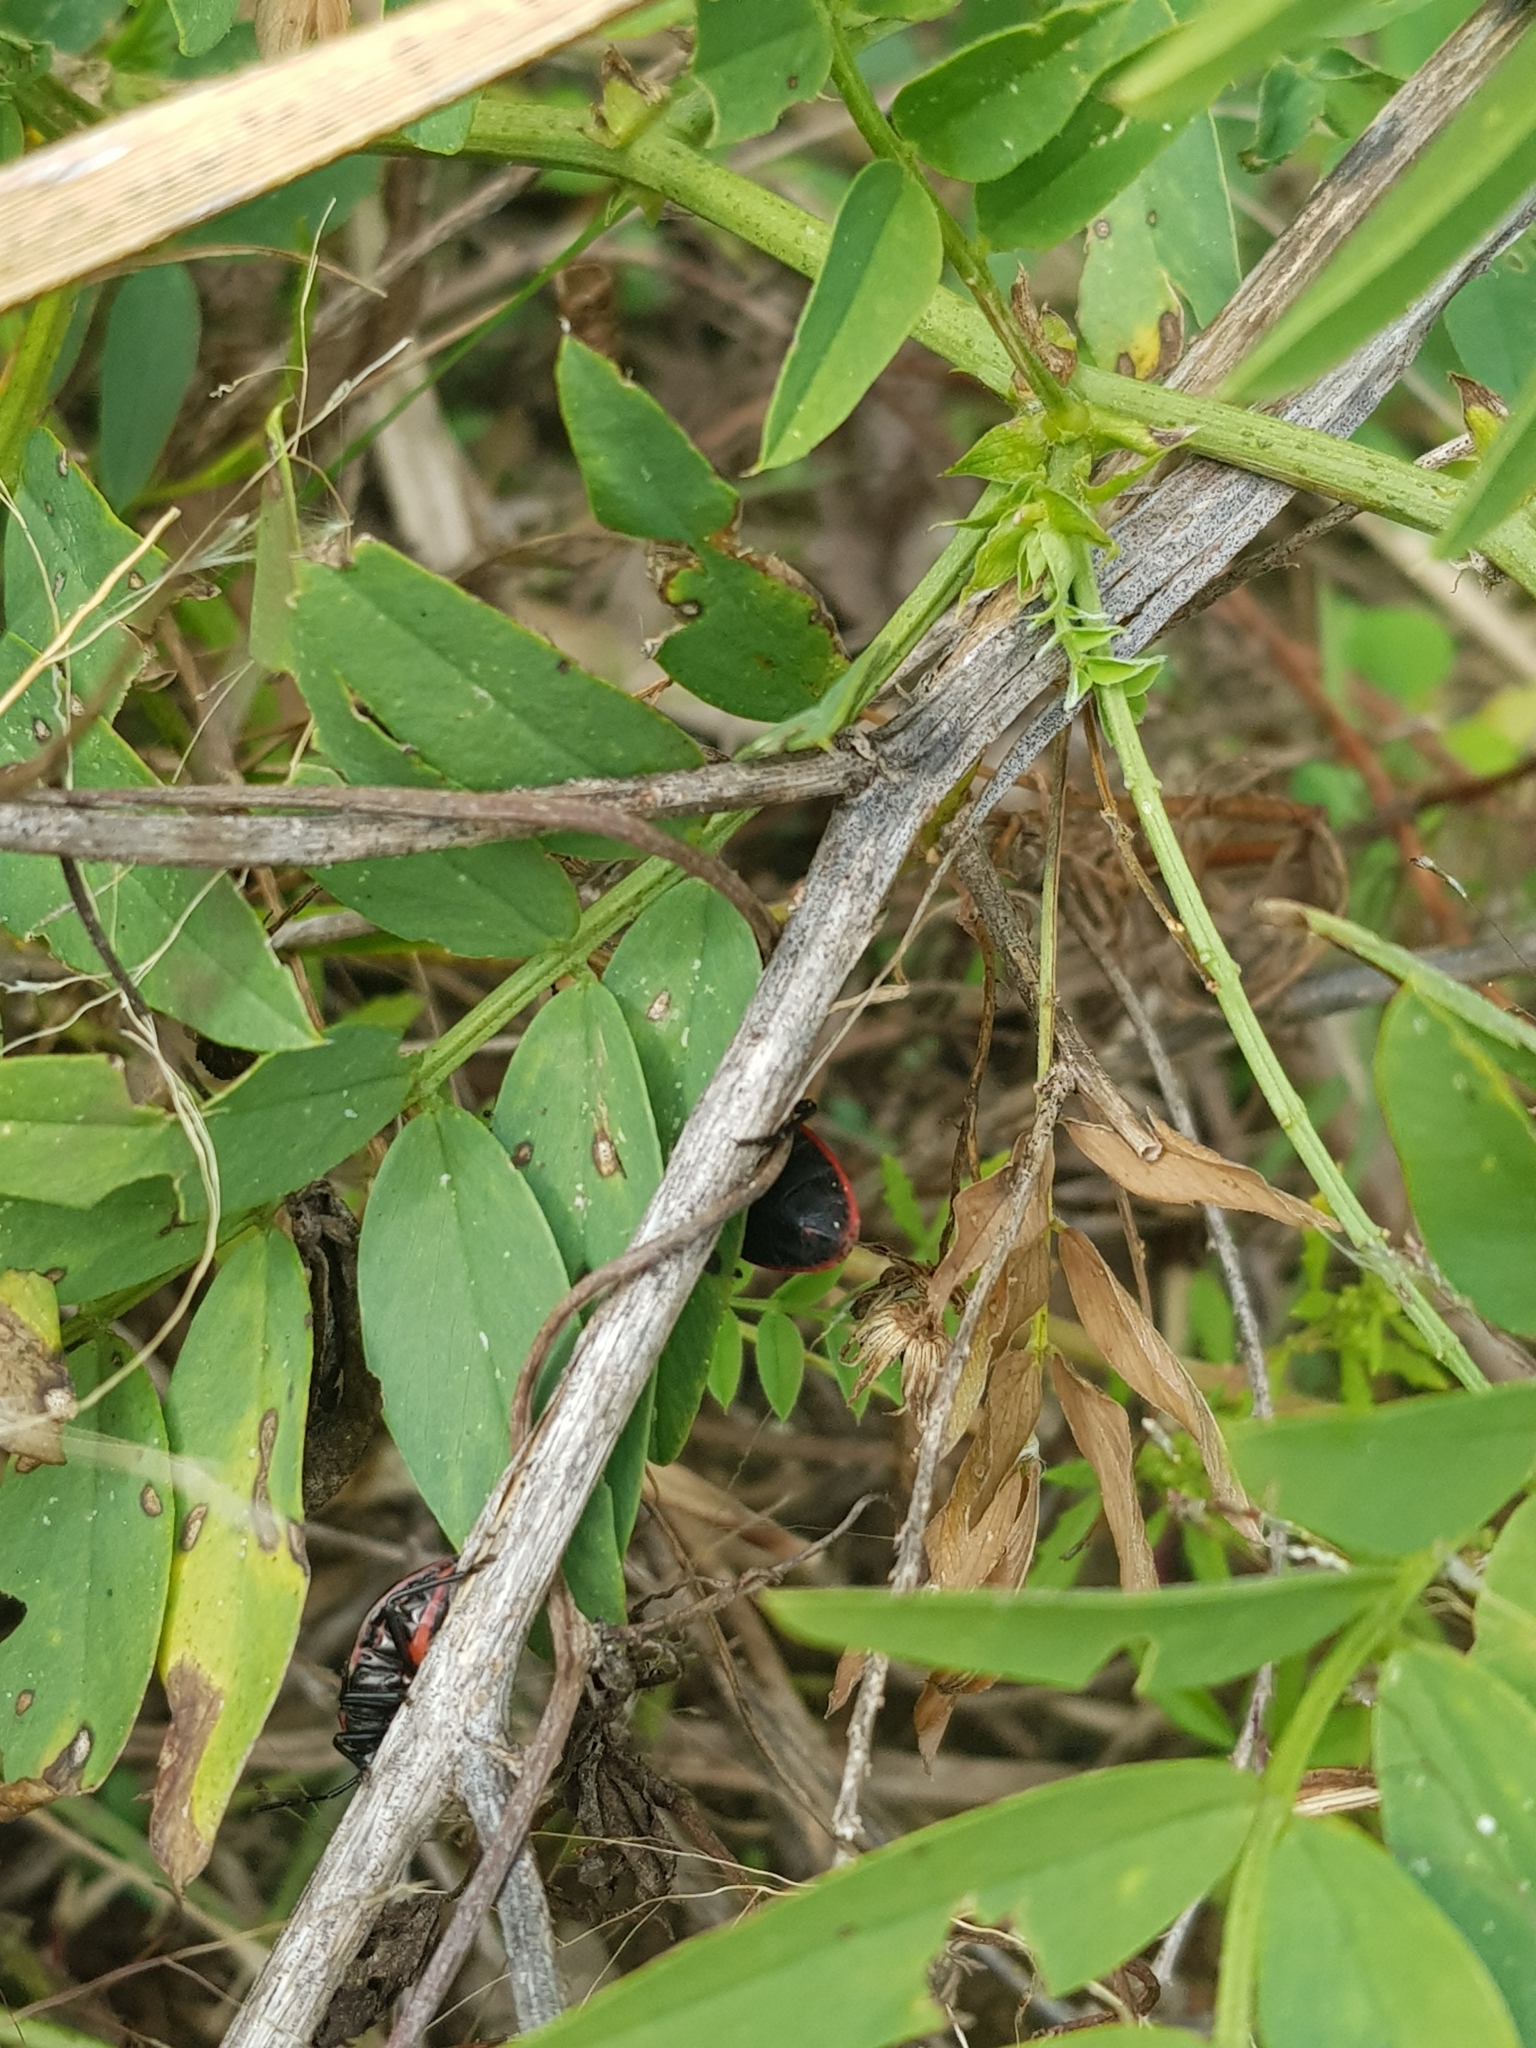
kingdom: Animalia
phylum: Arthropoda
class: Insecta
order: Hemiptera
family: Largidae
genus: Largus
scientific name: Largus rufipennis
